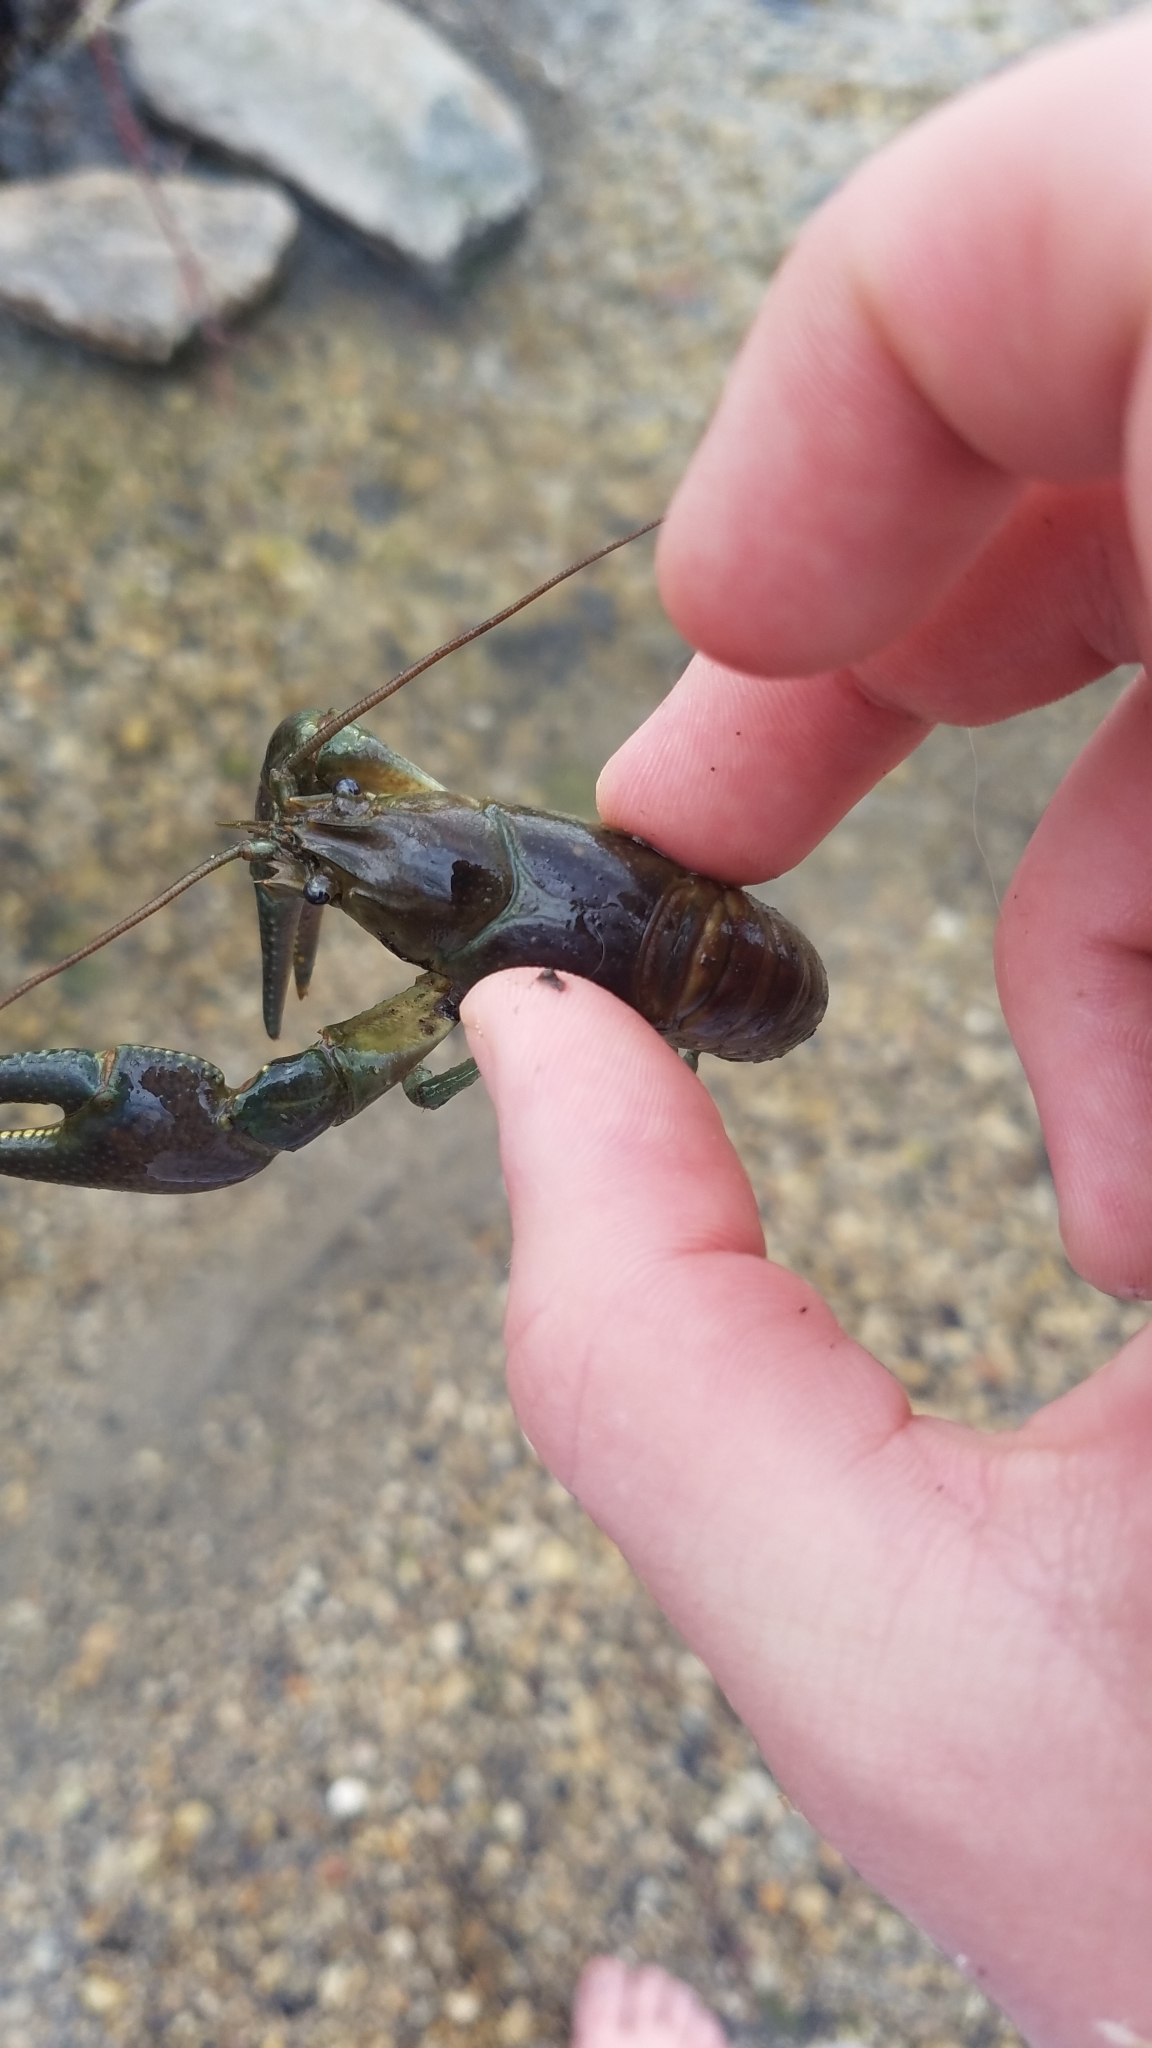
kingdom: Animalia
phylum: Arthropoda
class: Malacostraca
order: Decapoda
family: Cambaridae
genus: Faxonius
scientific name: Faxonius rusticus
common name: Rusty crayfish
